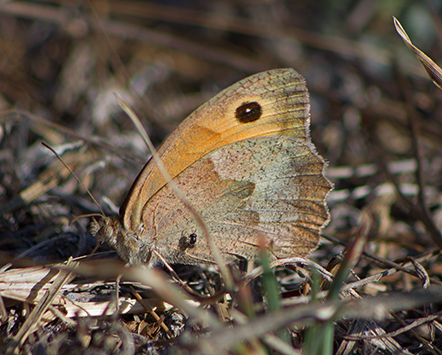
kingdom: Animalia
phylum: Arthropoda
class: Insecta
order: Lepidoptera
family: Nymphalidae
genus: Maniola
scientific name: Maniola jurtina
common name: Meadow brown
